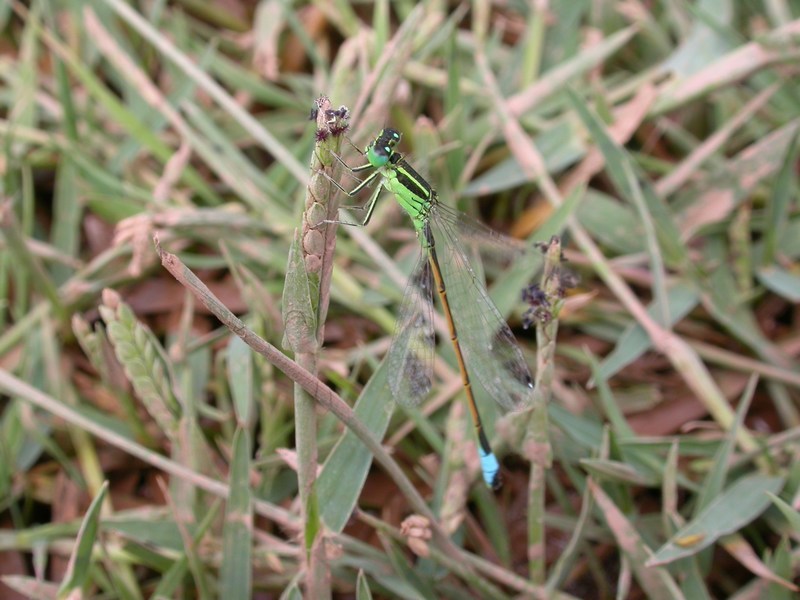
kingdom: Animalia
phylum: Arthropoda
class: Insecta
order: Odonata
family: Coenagrionidae
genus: Ischnura
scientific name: Ischnura saharensis
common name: Sahara bluetail
